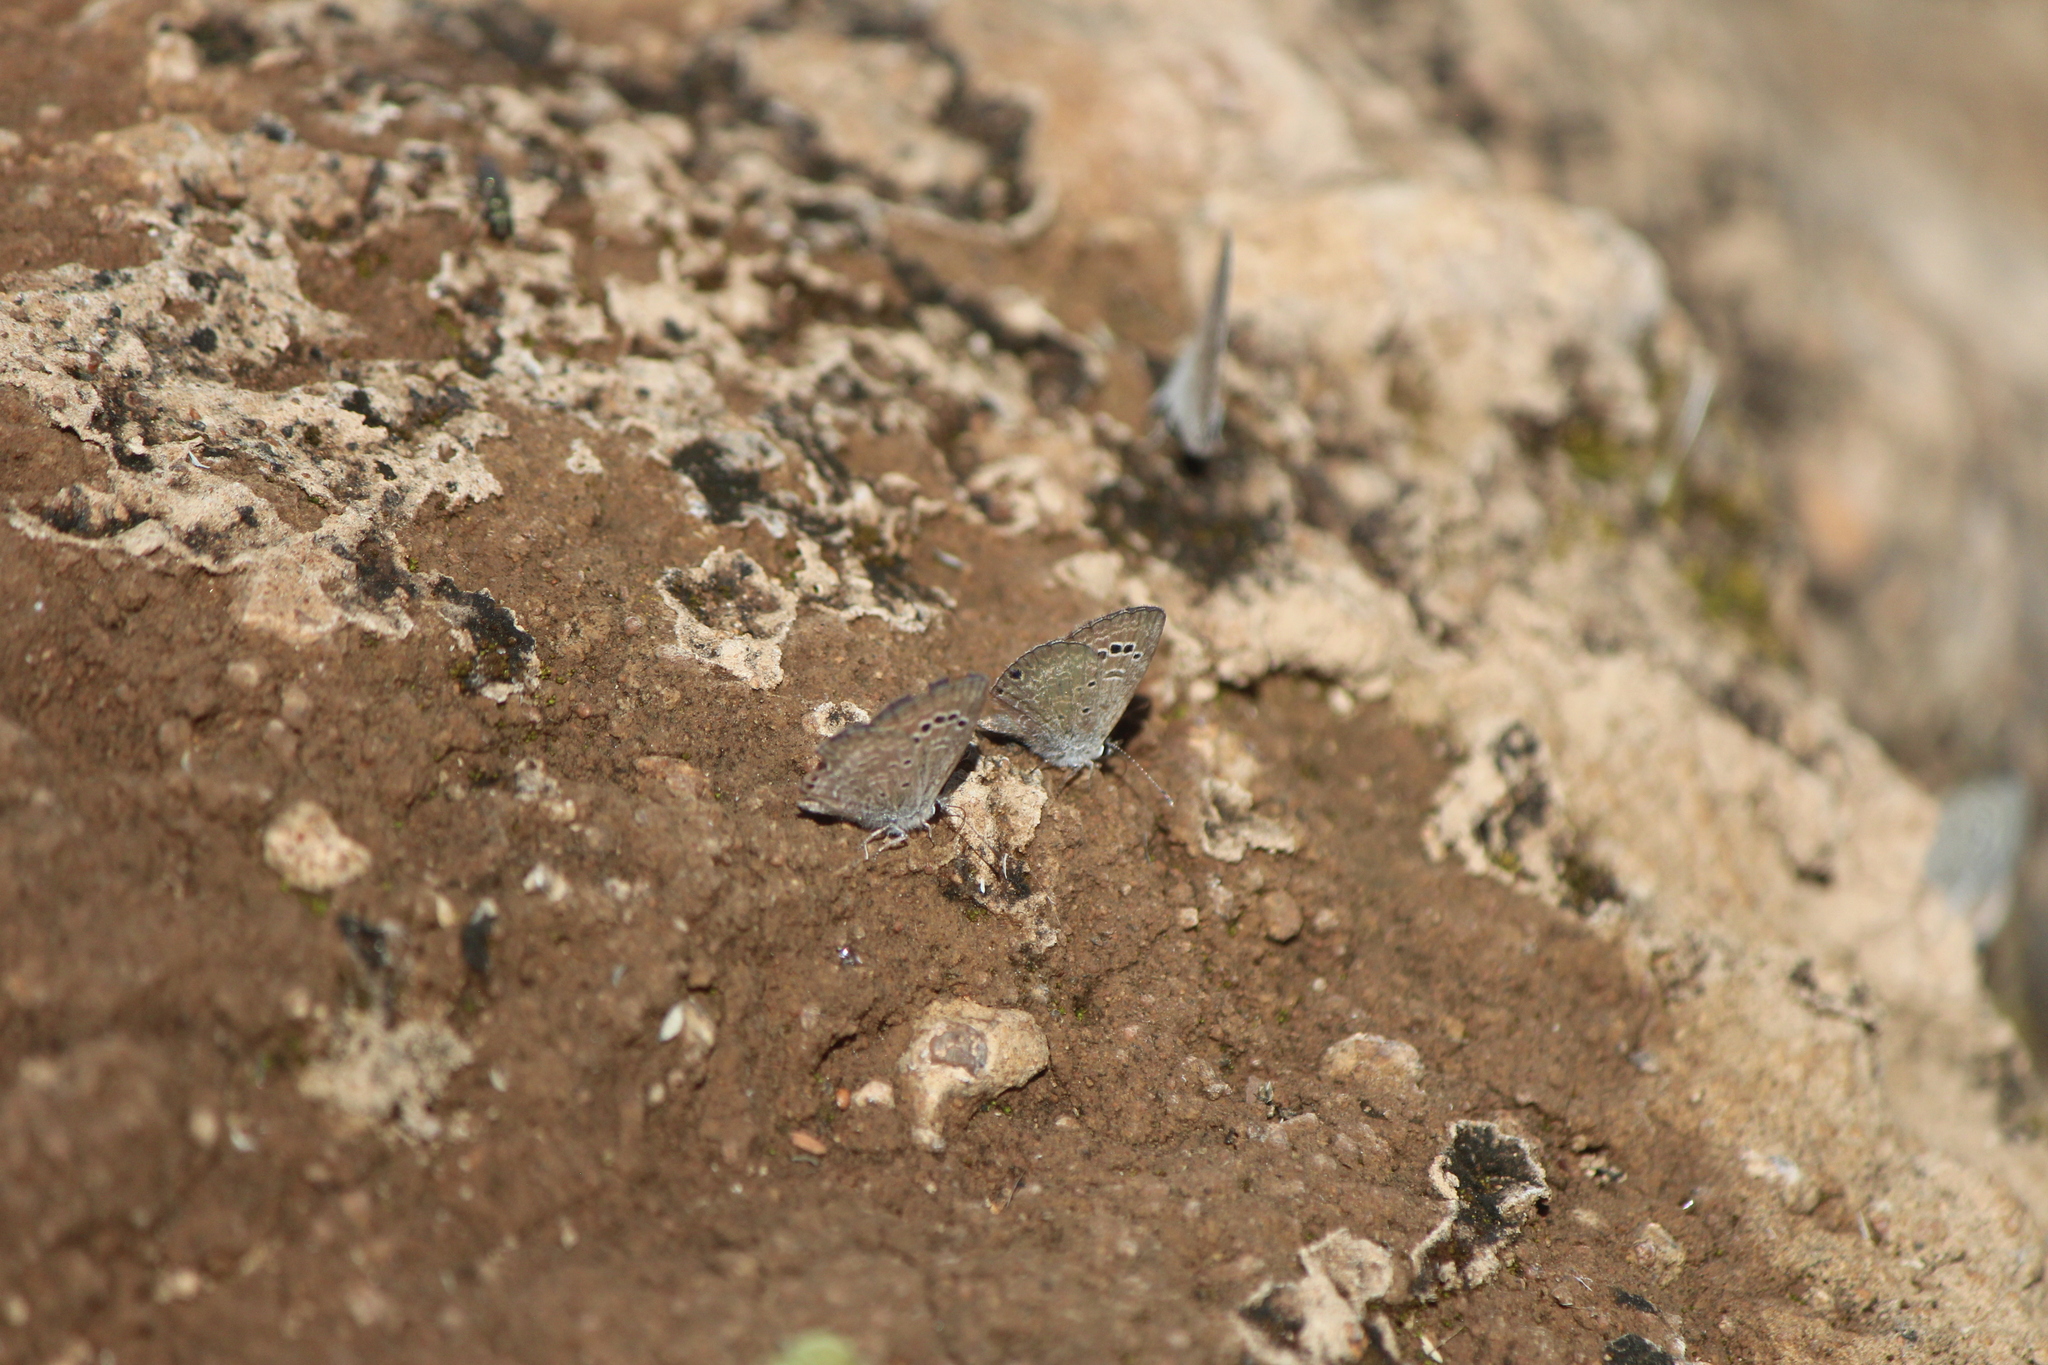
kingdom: Animalia
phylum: Arthropoda
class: Insecta
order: Lepidoptera
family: Lycaenidae
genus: Echinargus
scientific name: Echinargus isola
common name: Reakirt's blue
